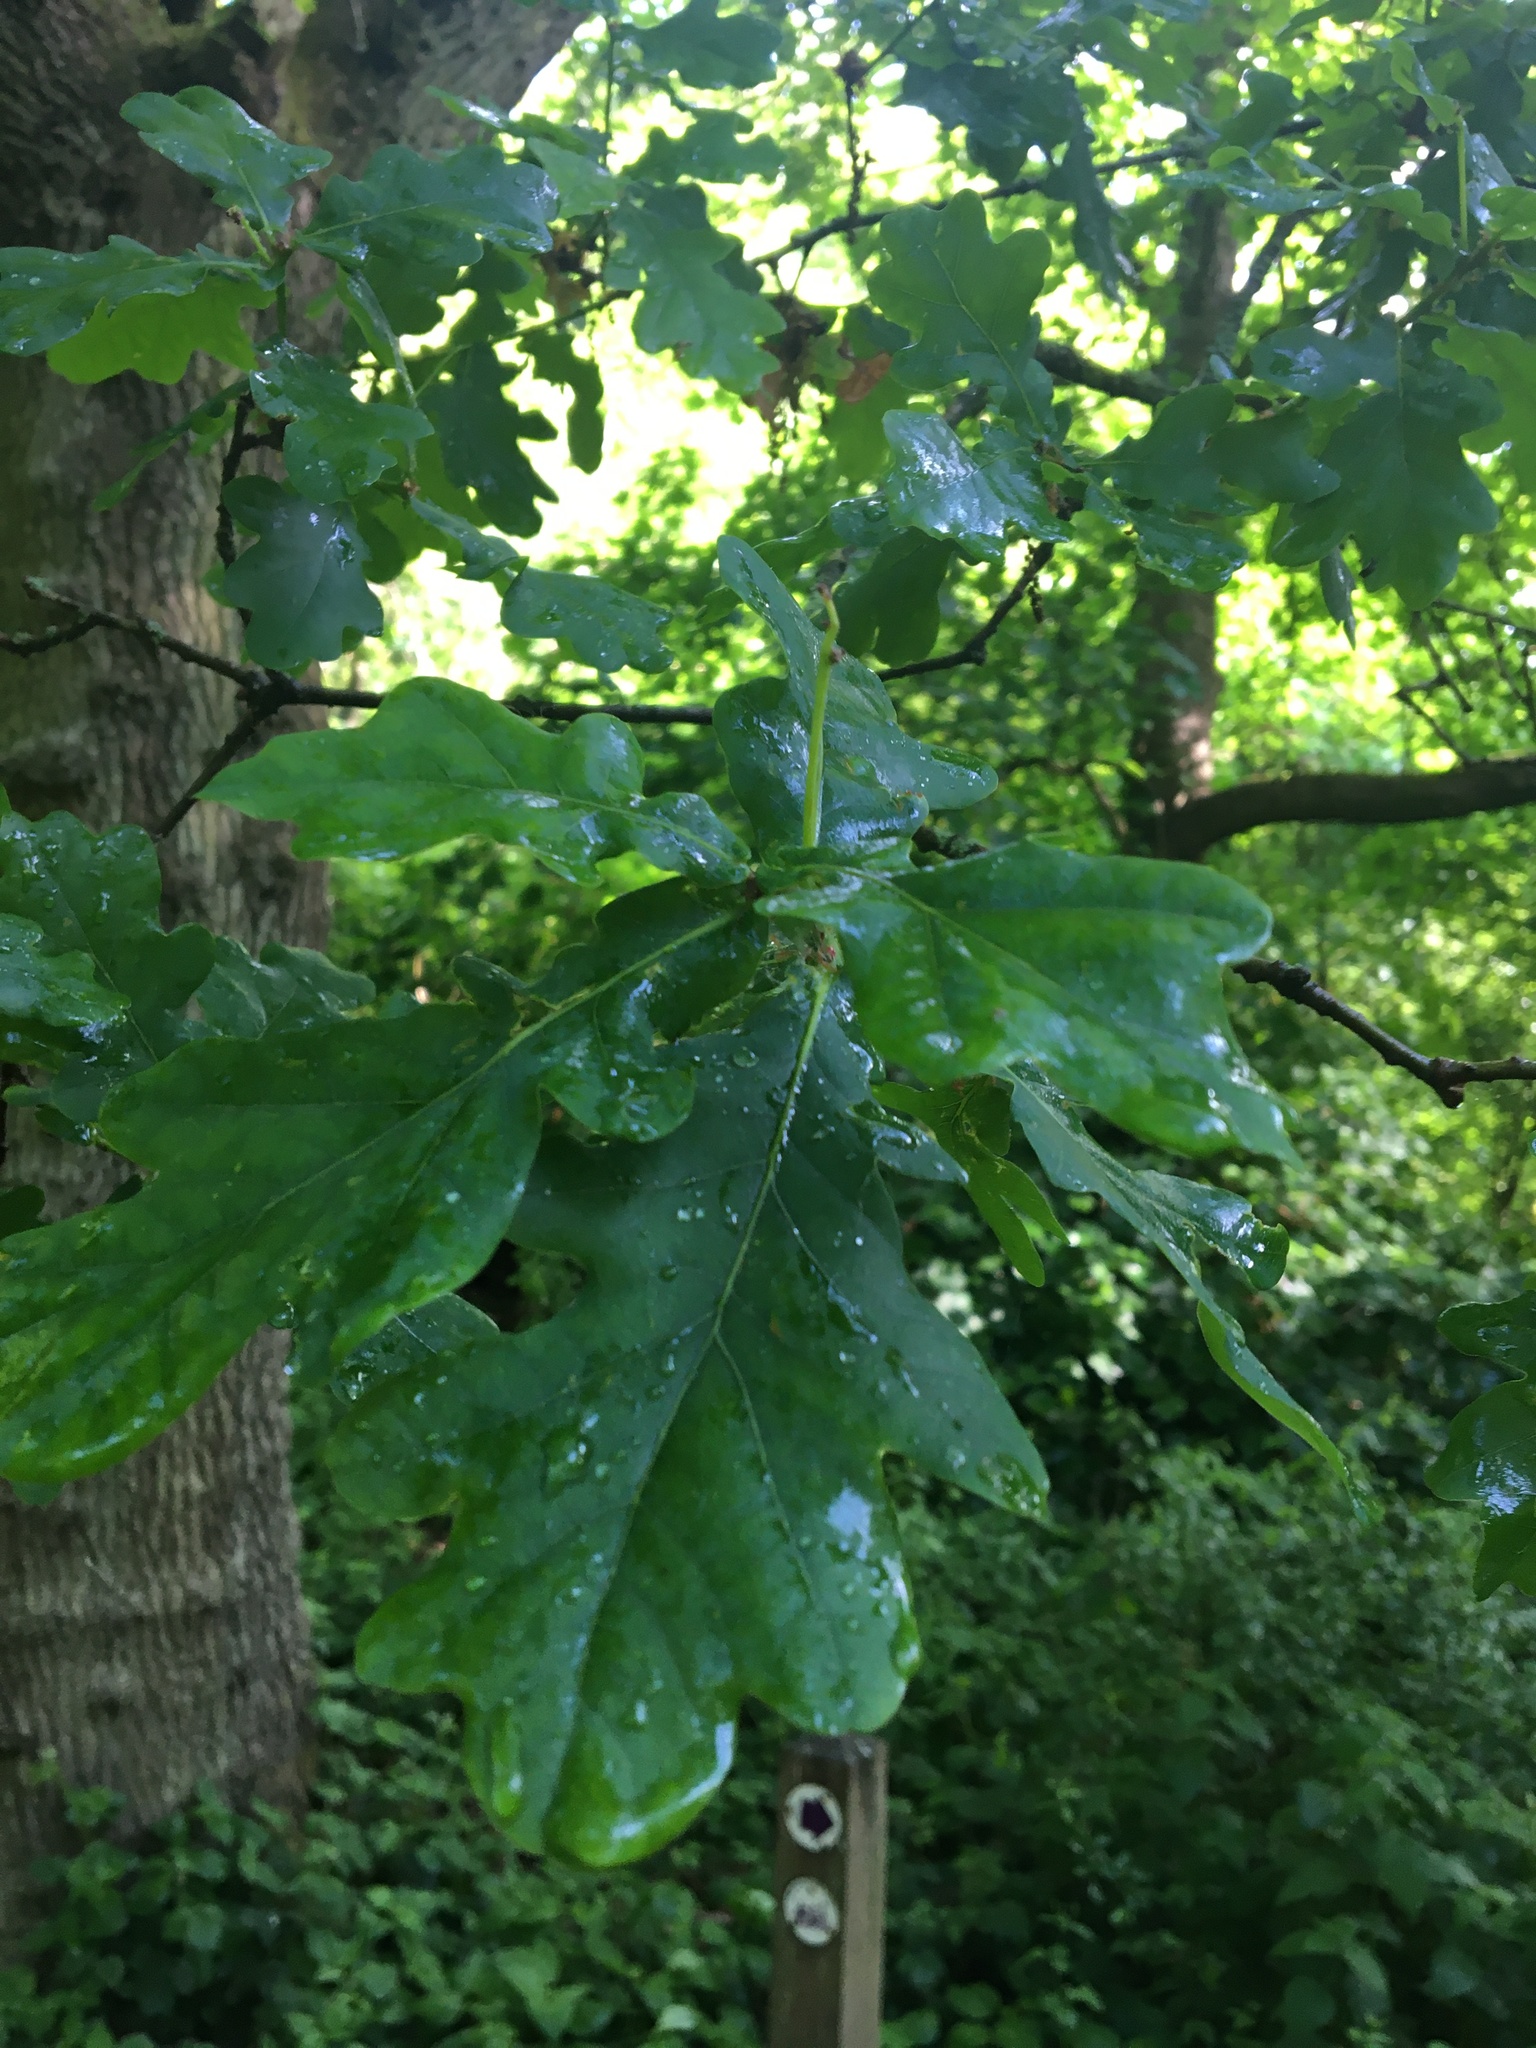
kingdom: Plantae
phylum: Tracheophyta
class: Magnoliopsida
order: Fagales
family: Fagaceae
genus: Quercus
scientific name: Quercus robur
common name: Pedunculate oak
